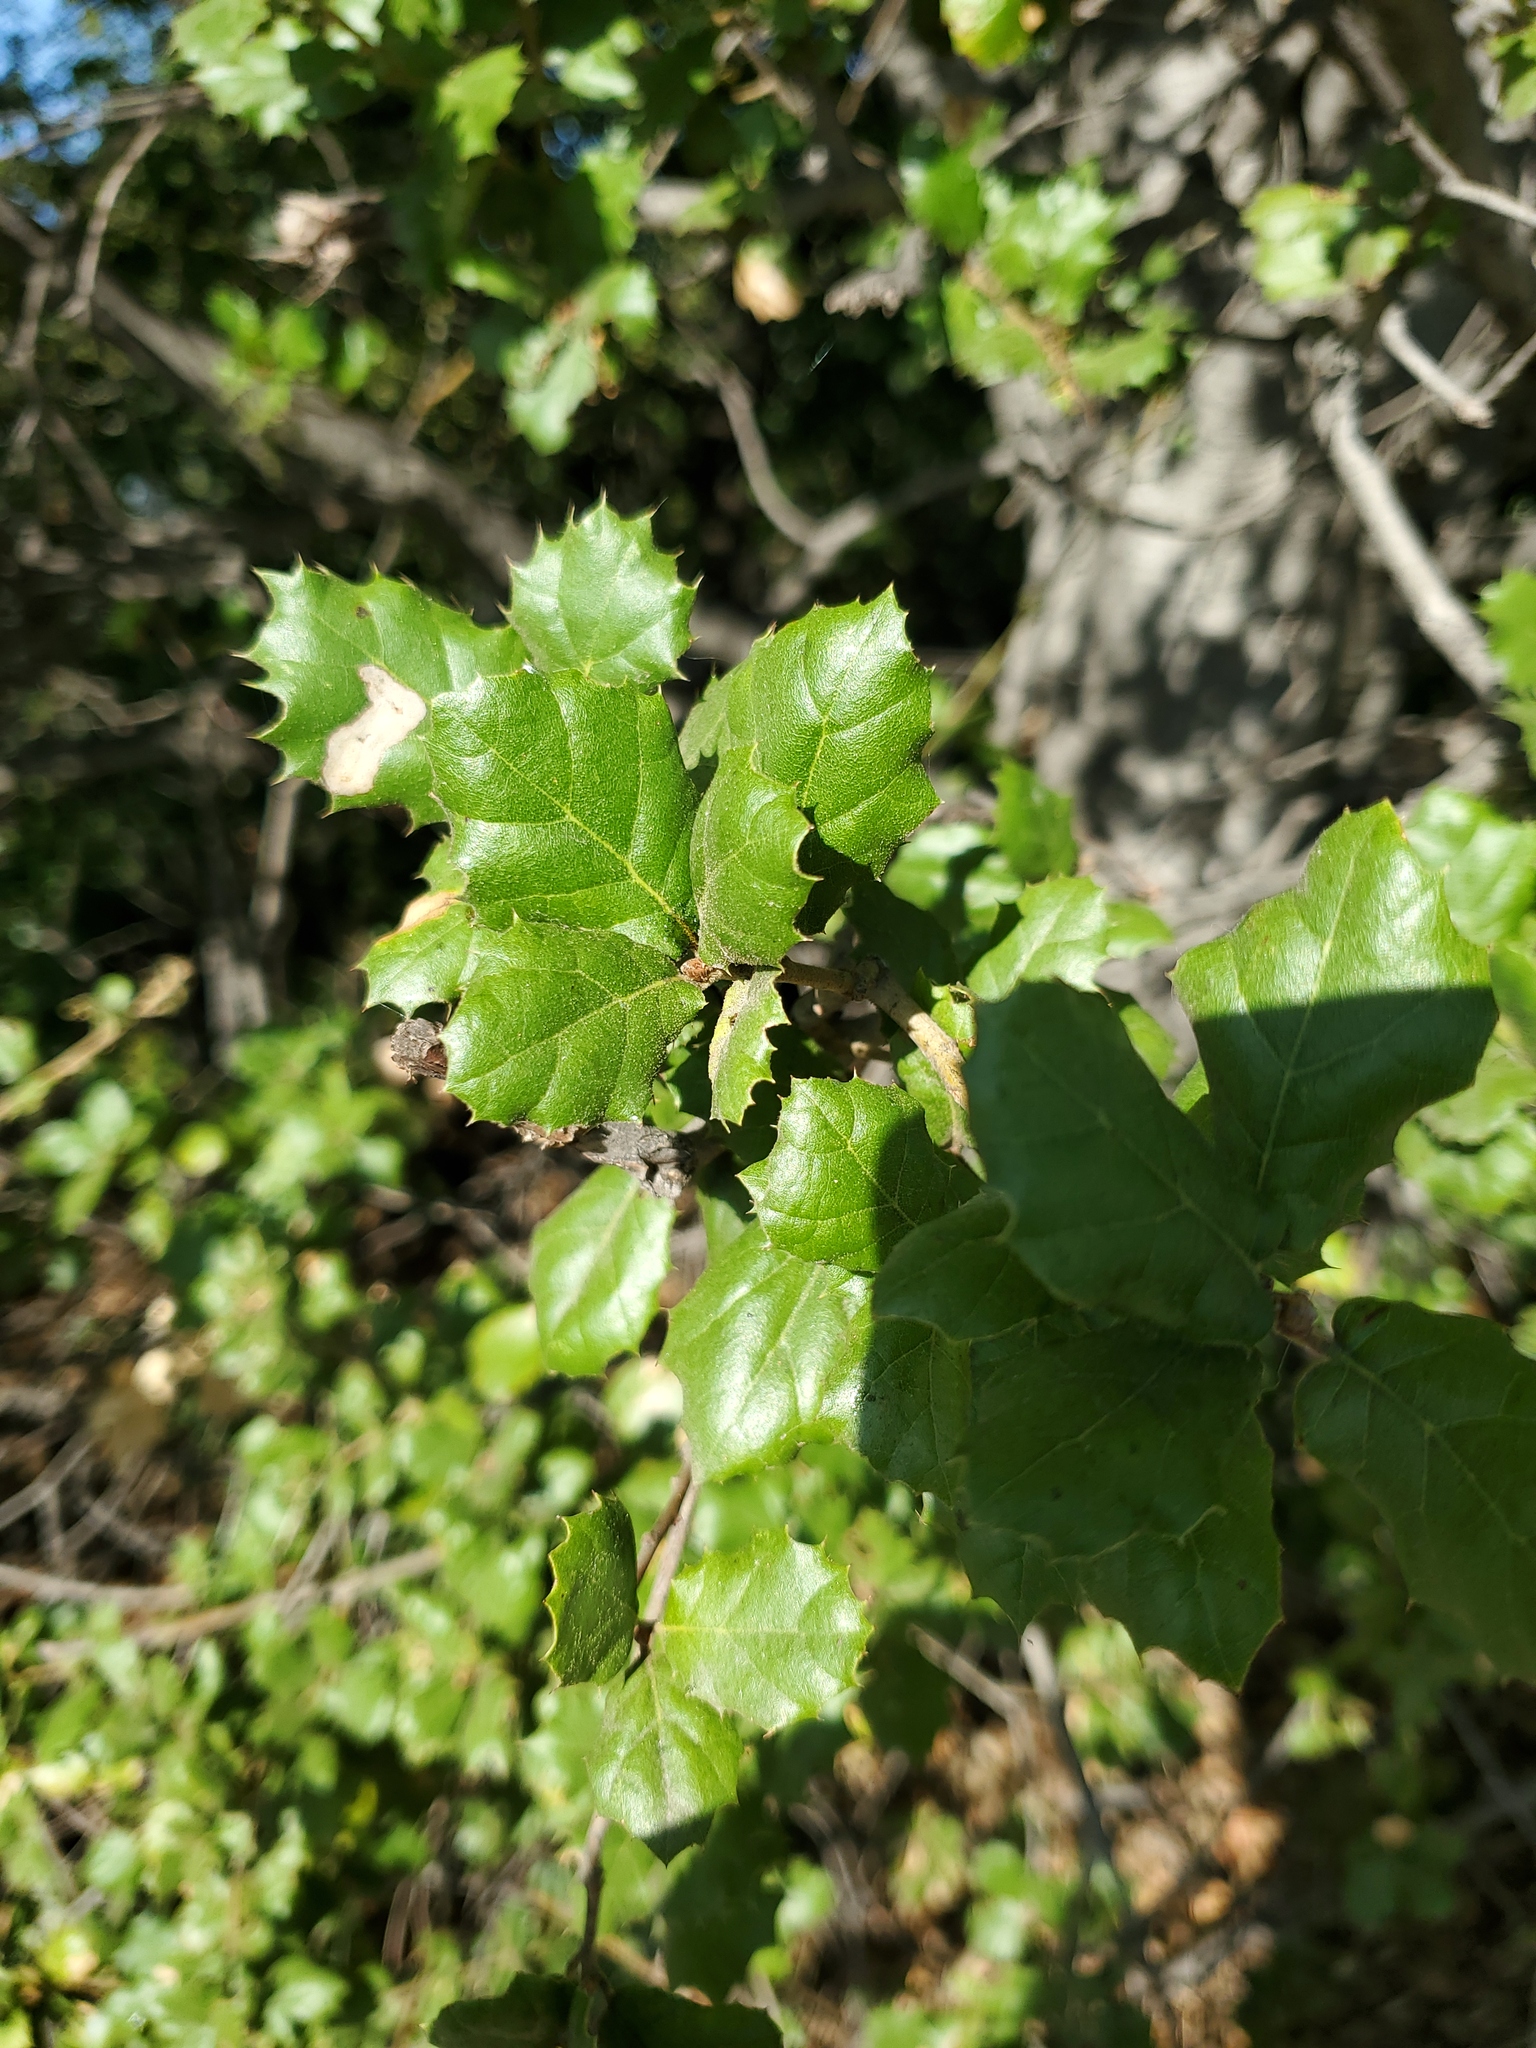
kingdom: Plantae
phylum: Tracheophyta
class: Magnoliopsida
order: Fagales
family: Fagaceae
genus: Quercus
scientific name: Quercus agrifolia
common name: California live oak
